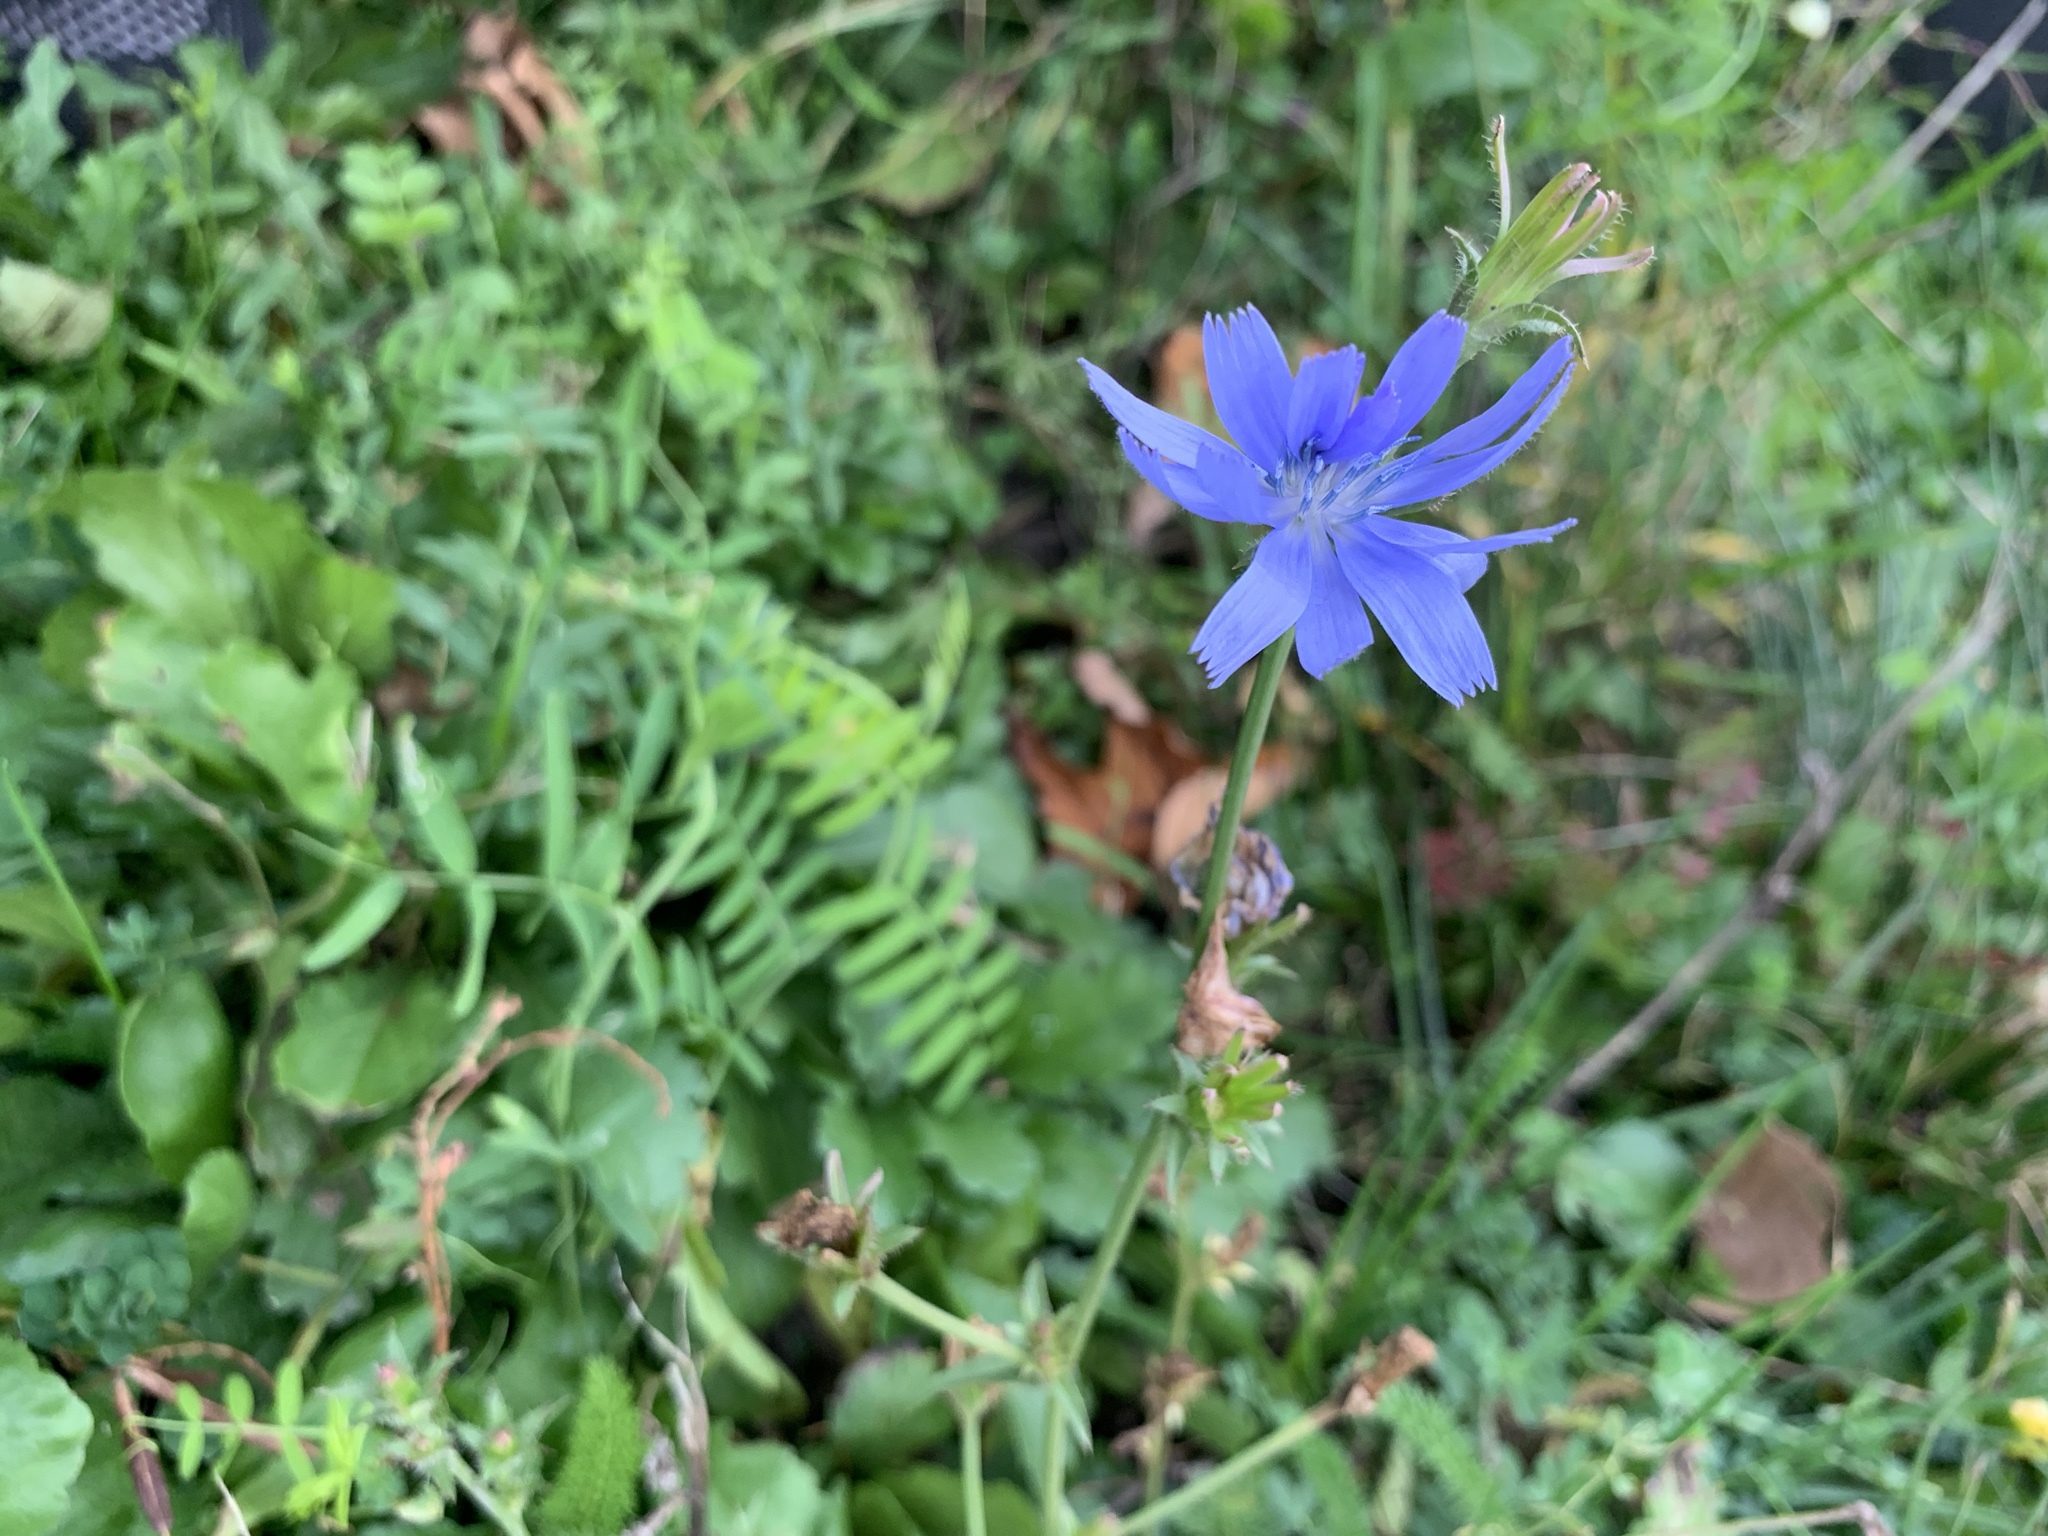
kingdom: Plantae
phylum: Tracheophyta
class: Magnoliopsida
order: Asterales
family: Asteraceae
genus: Cichorium
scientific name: Cichorium intybus
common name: Chicory
